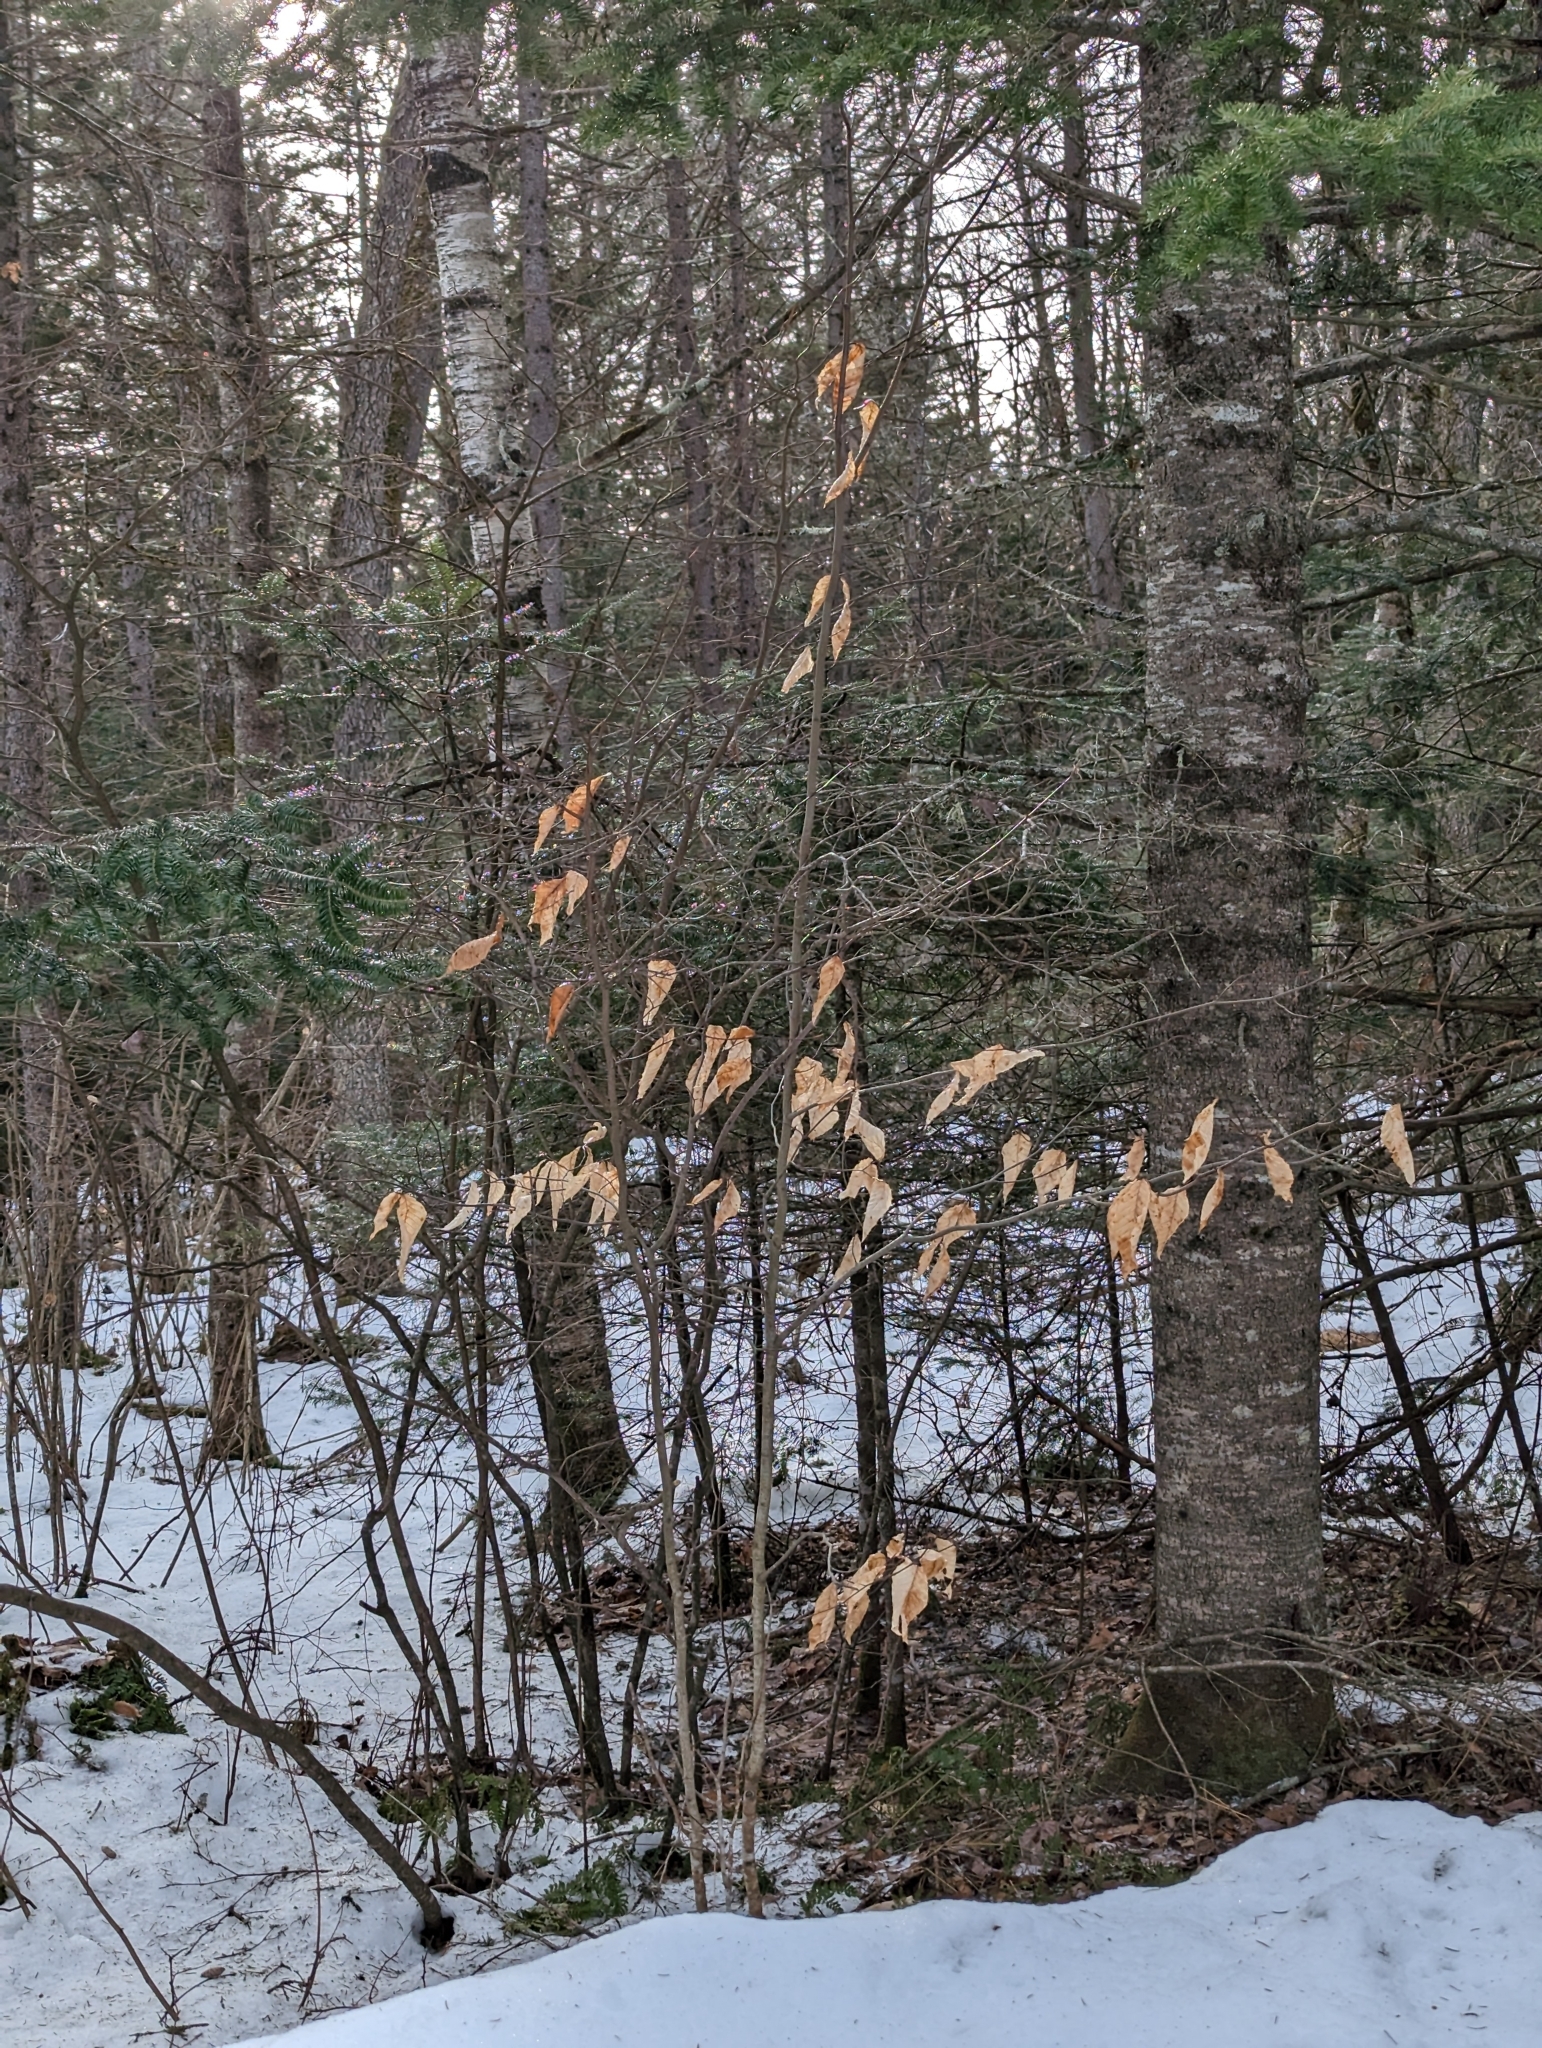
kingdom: Plantae
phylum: Tracheophyta
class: Magnoliopsida
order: Fagales
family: Fagaceae
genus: Fagus
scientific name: Fagus grandifolia
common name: American beech
